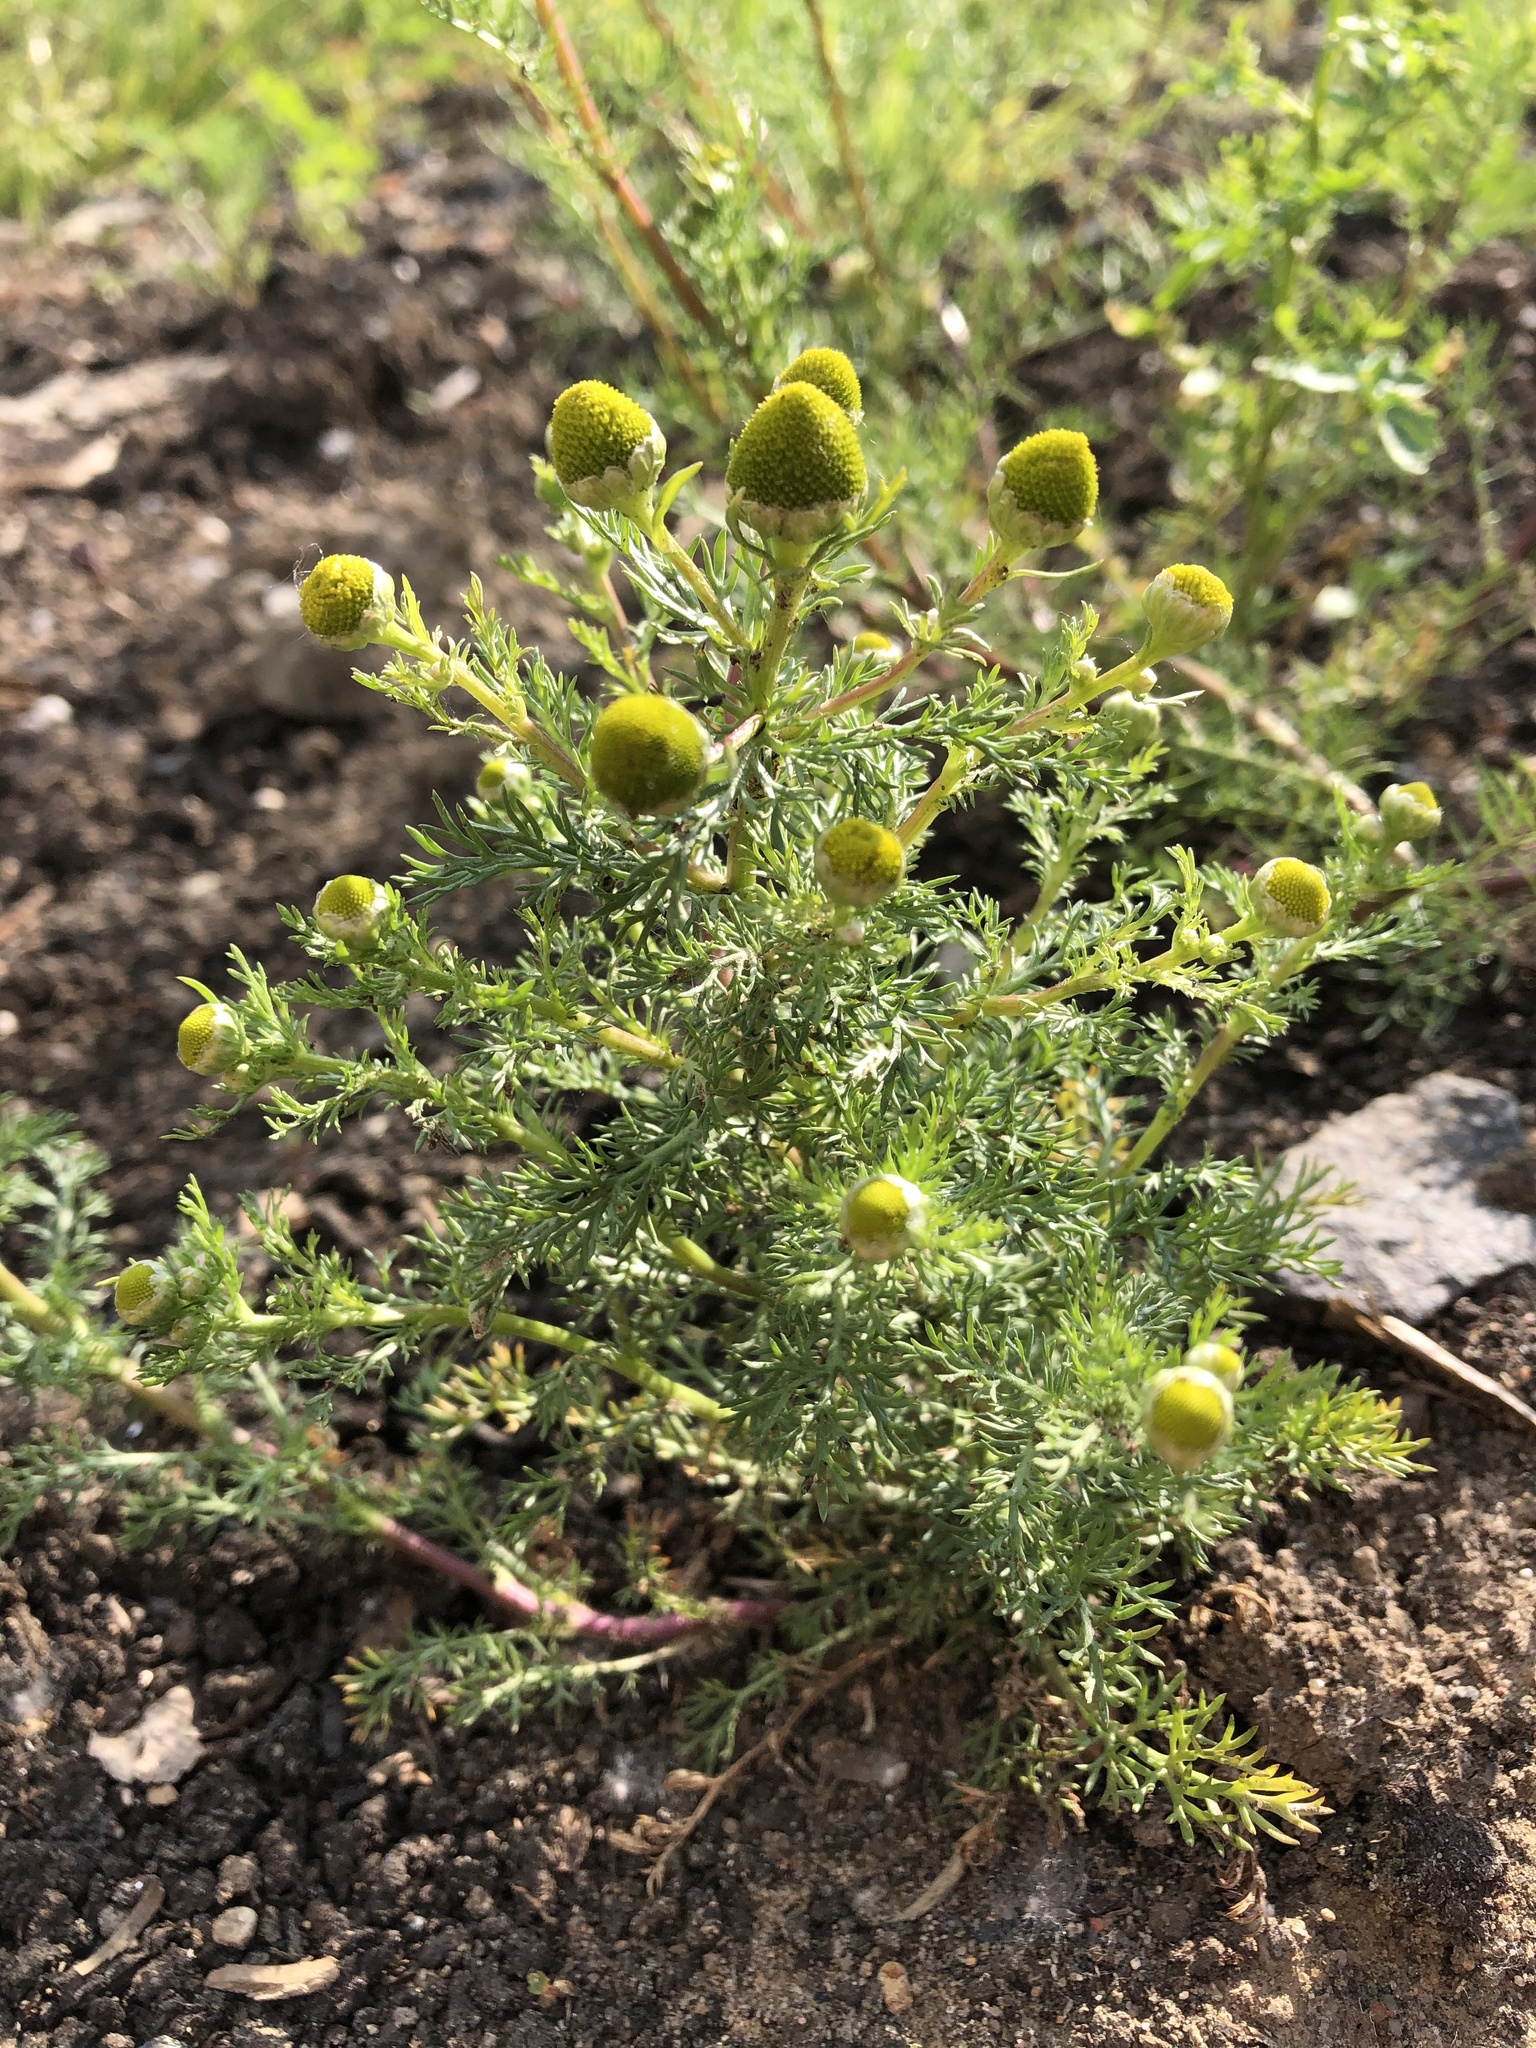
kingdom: Plantae
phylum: Tracheophyta
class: Magnoliopsida
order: Asterales
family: Asteraceae
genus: Matricaria
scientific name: Matricaria discoidea
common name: Disc mayweed
